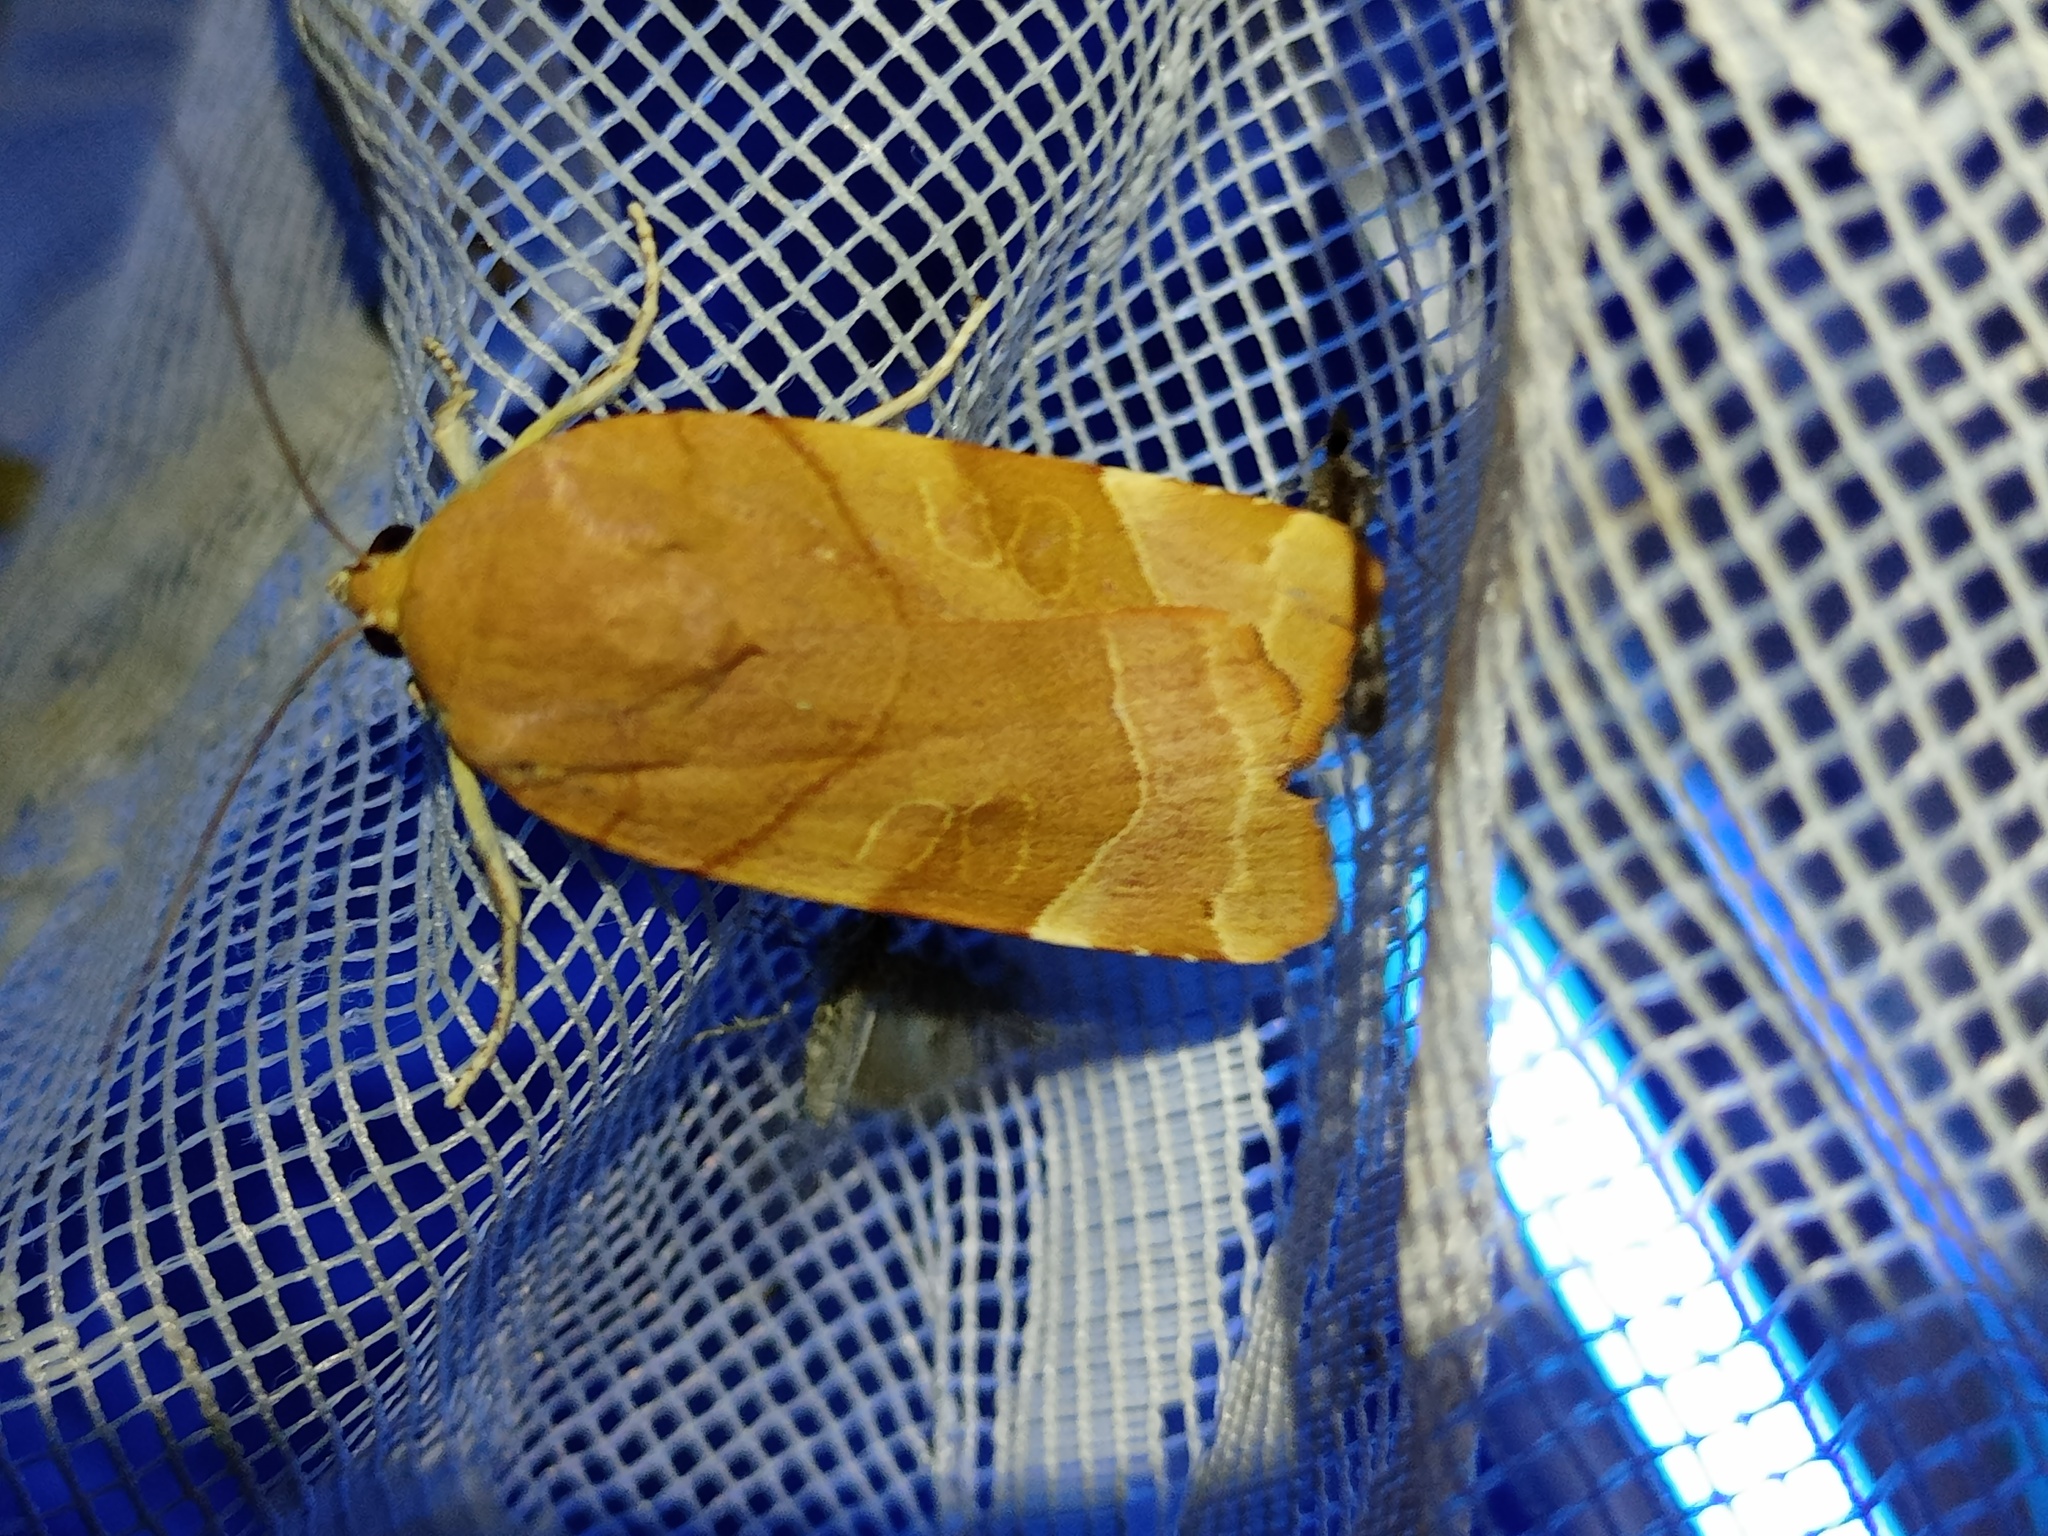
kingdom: Animalia
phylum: Arthropoda
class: Insecta
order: Lepidoptera
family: Noctuidae
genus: Noctua
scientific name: Noctua fimbriata
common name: Broad-bordered yellow underwing
